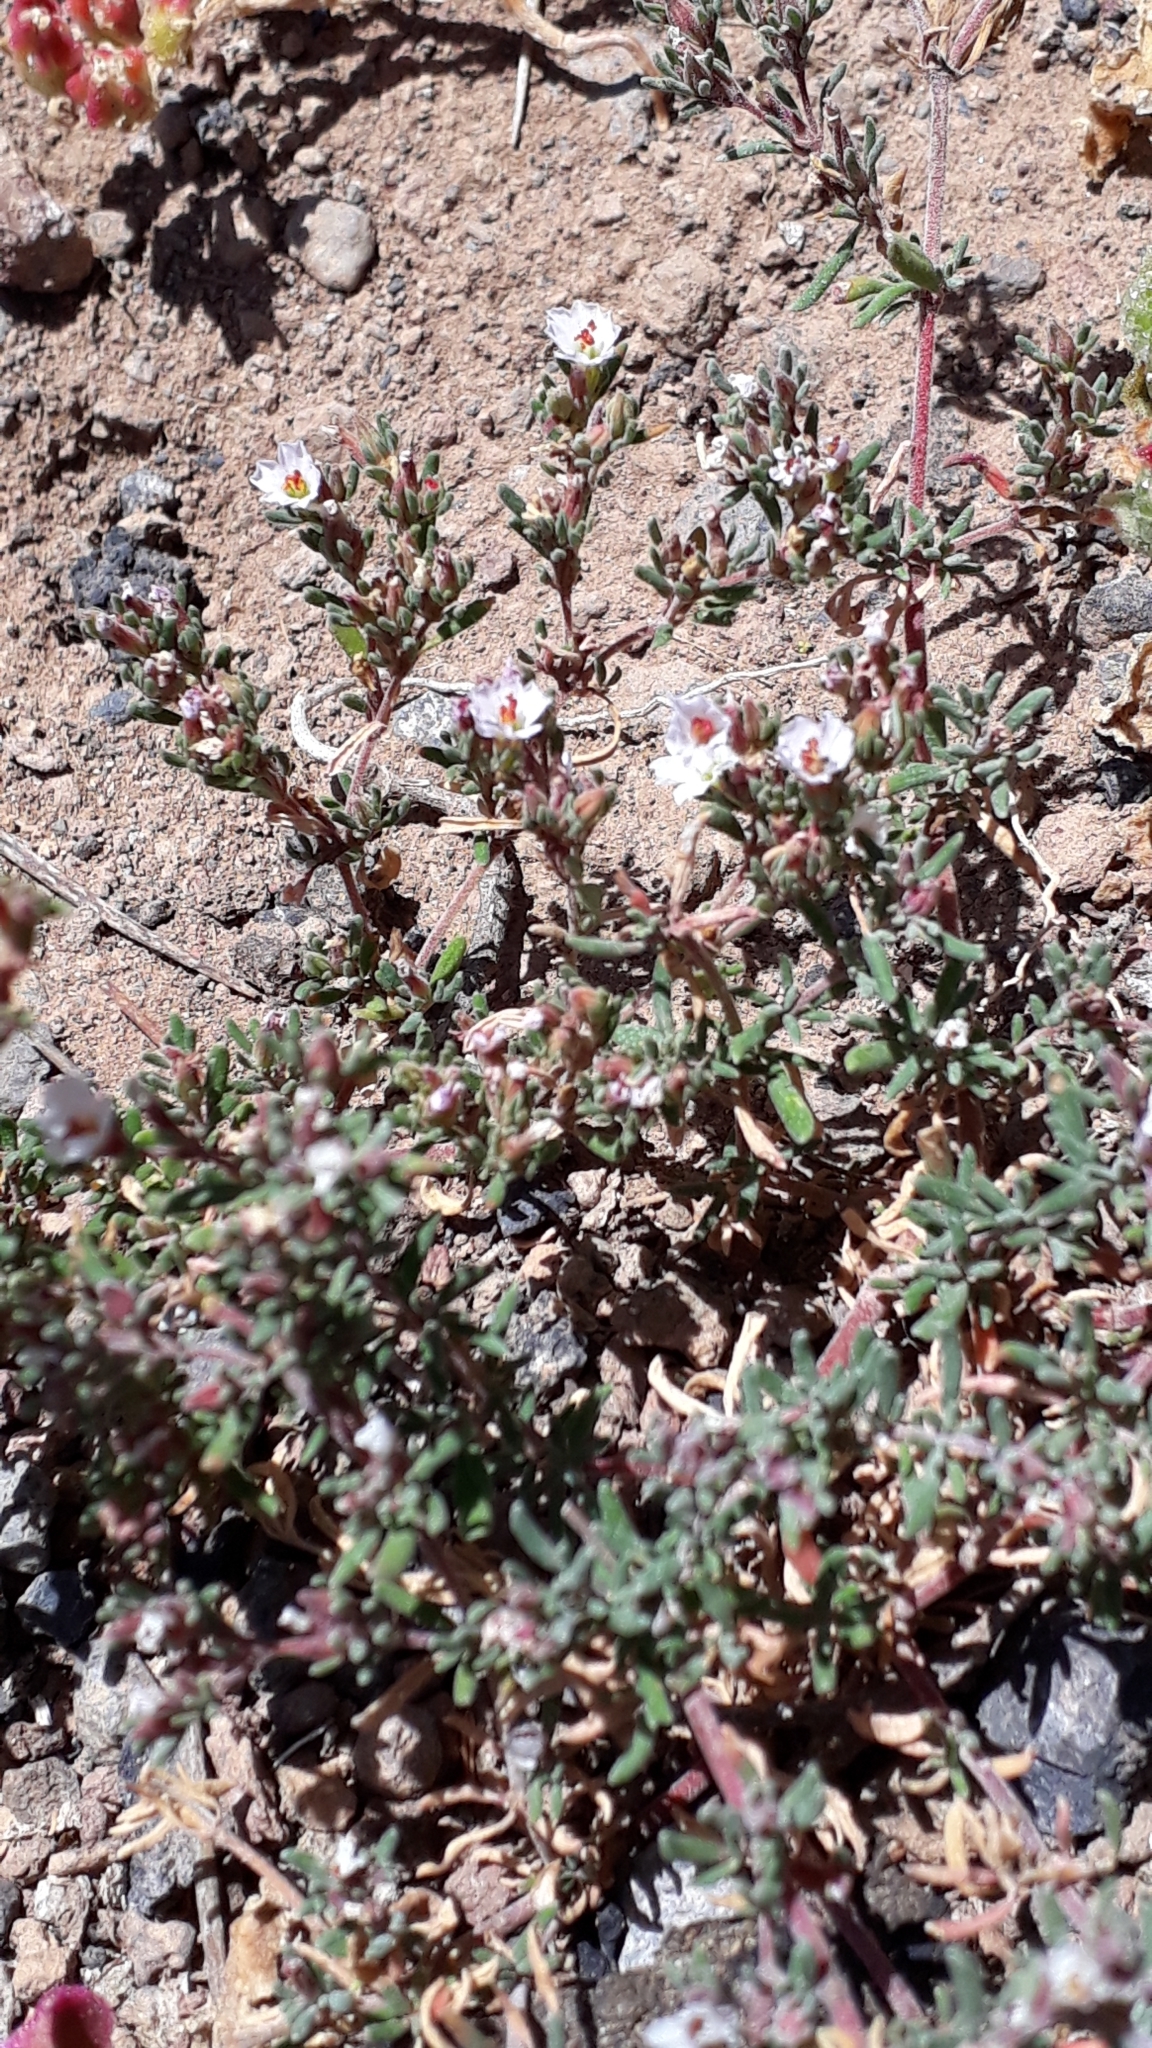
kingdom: Plantae
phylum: Tracheophyta
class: Magnoliopsida
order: Caryophyllales
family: Frankeniaceae
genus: Frankenia
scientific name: Frankenia ericifolia
